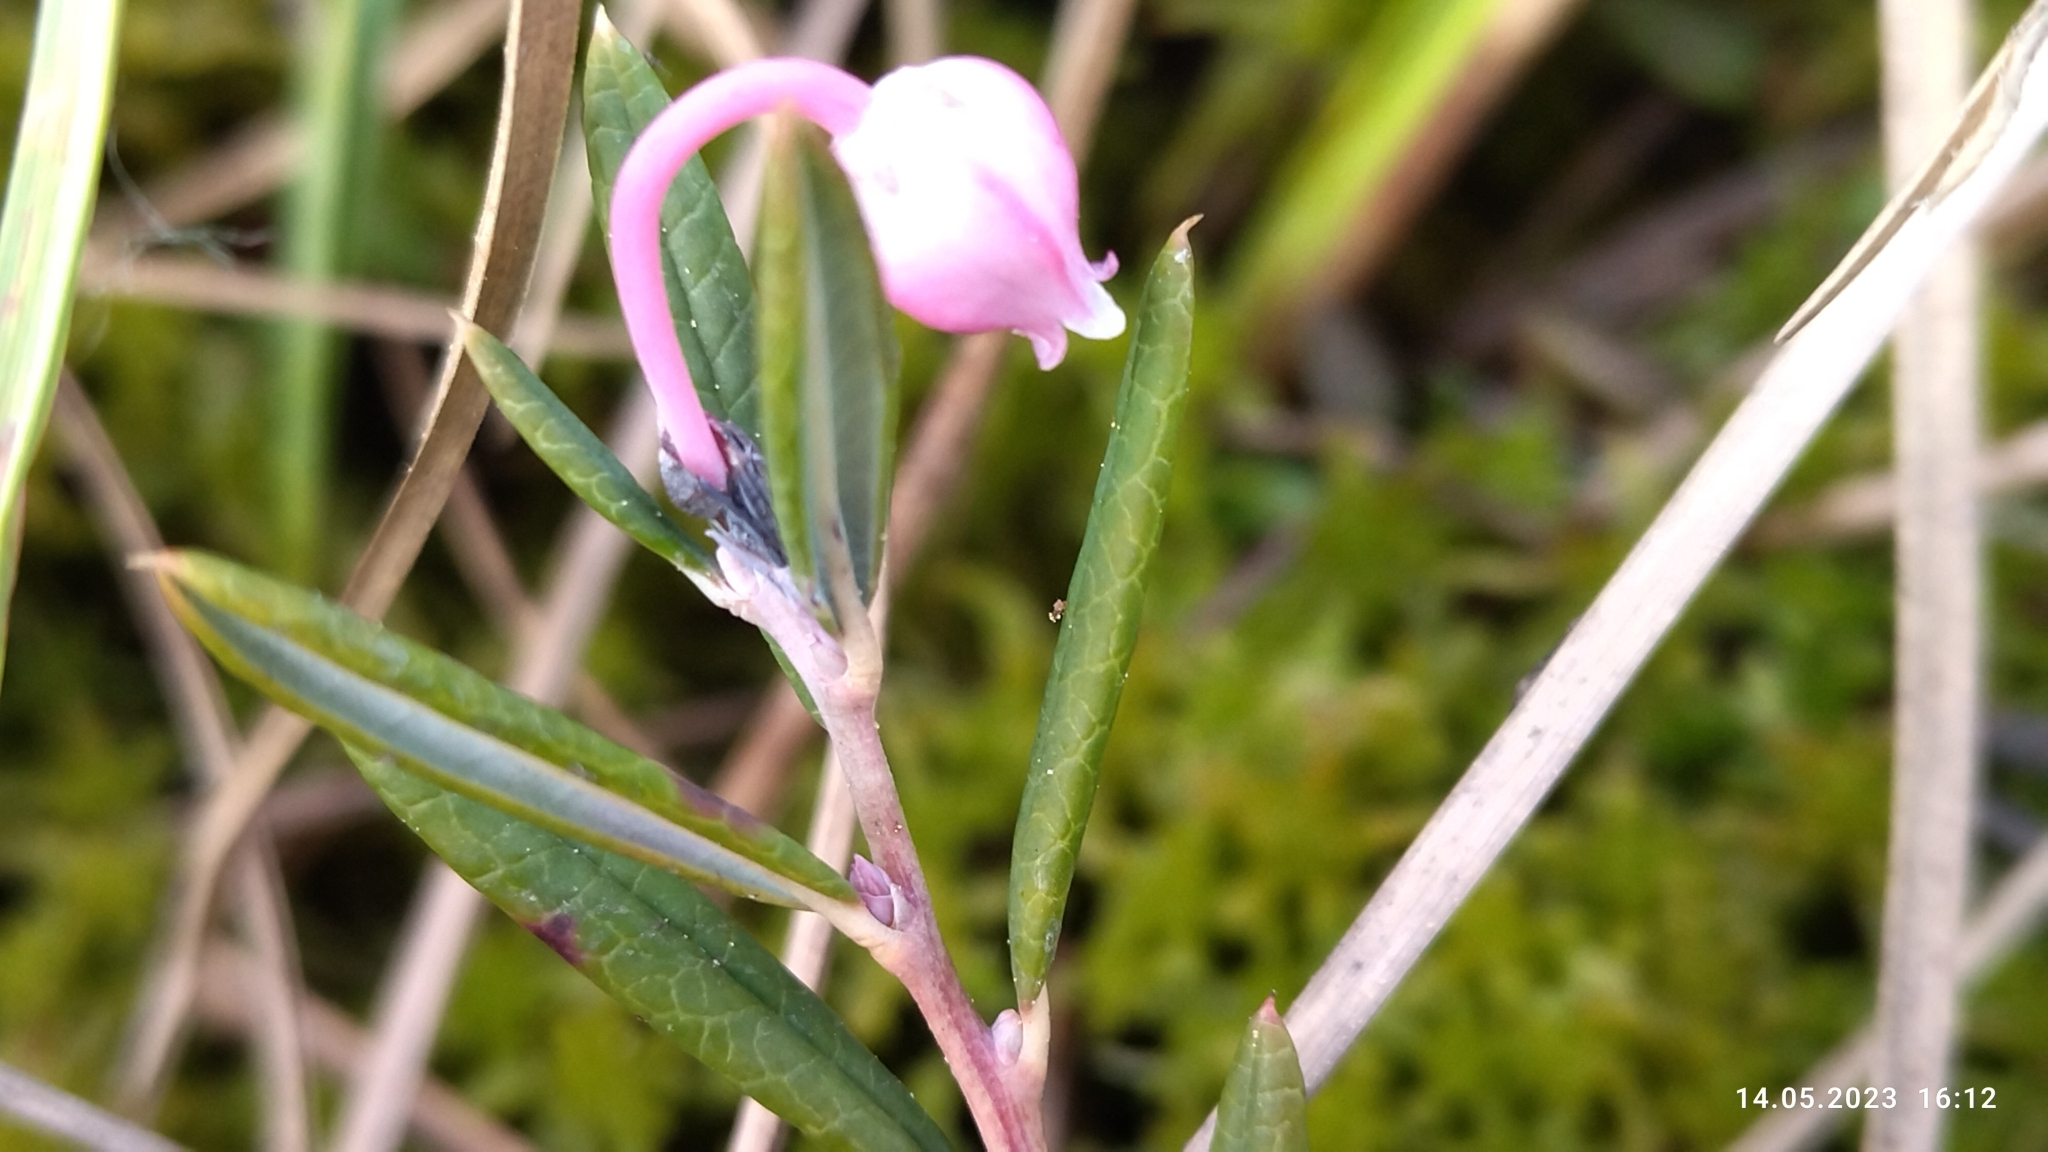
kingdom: Plantae
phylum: Tracheophyta
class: Magnoliopsida
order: Ericales
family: Ericaceae
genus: Andromeda
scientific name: Andromeda polifolia
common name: Bog-rosemary
